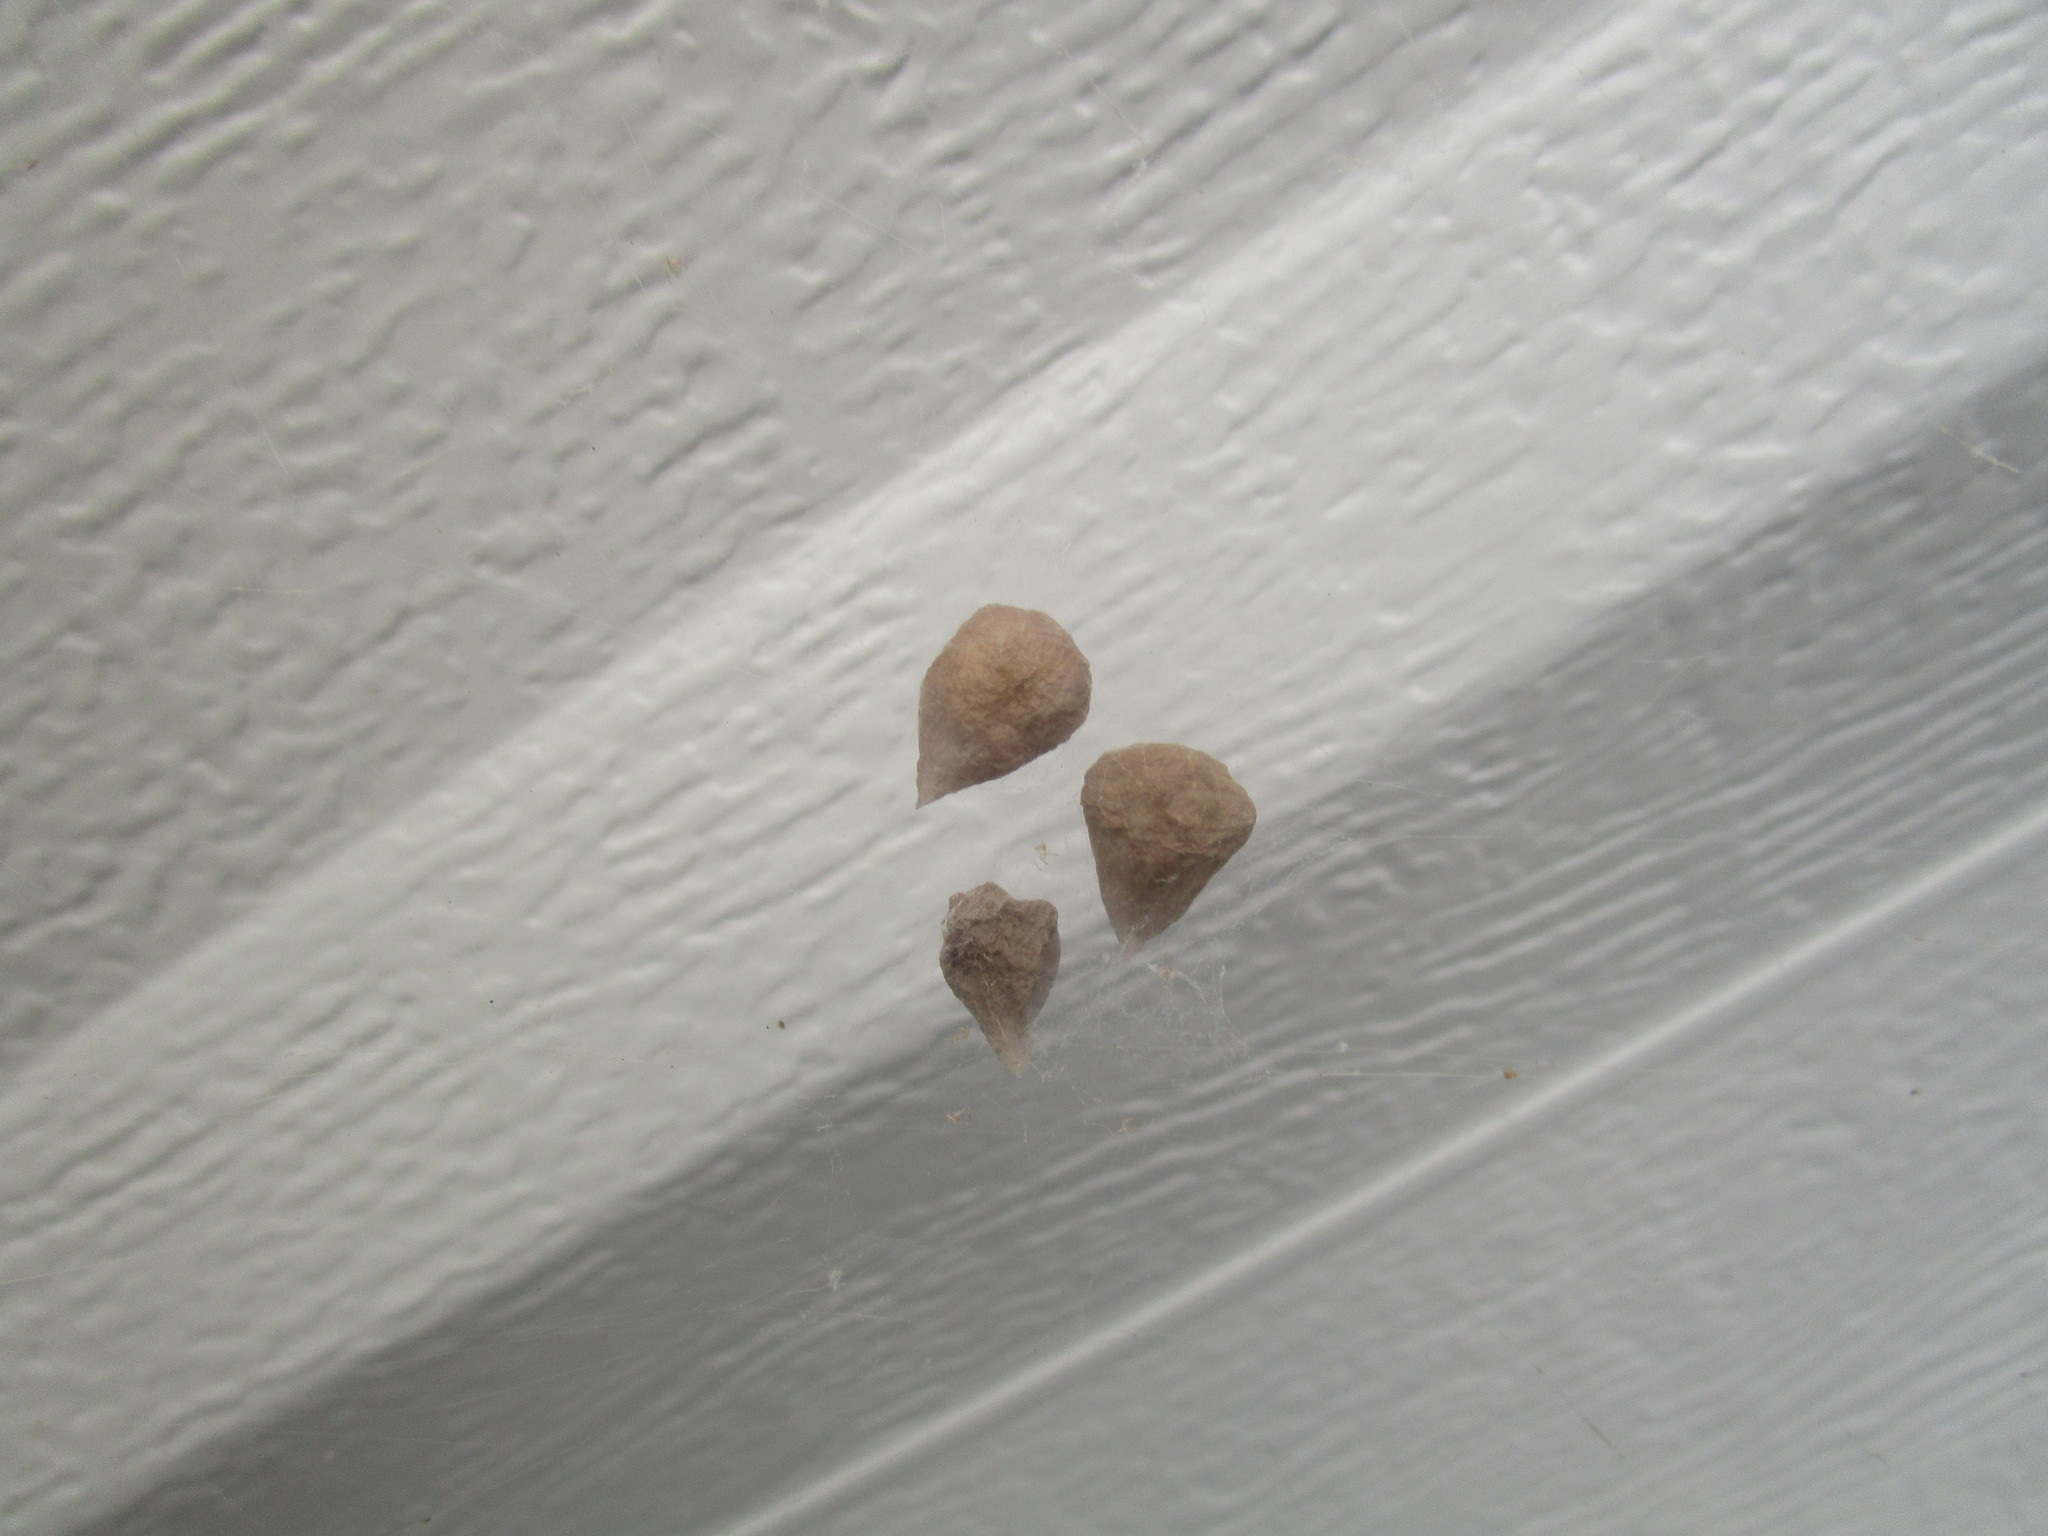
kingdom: Animalia
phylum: Arthropoda
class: Arachnida
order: Araneae
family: Theridiidae
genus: Parasteatoda
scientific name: Parasteatoda tepidariorum
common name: Common house spider
